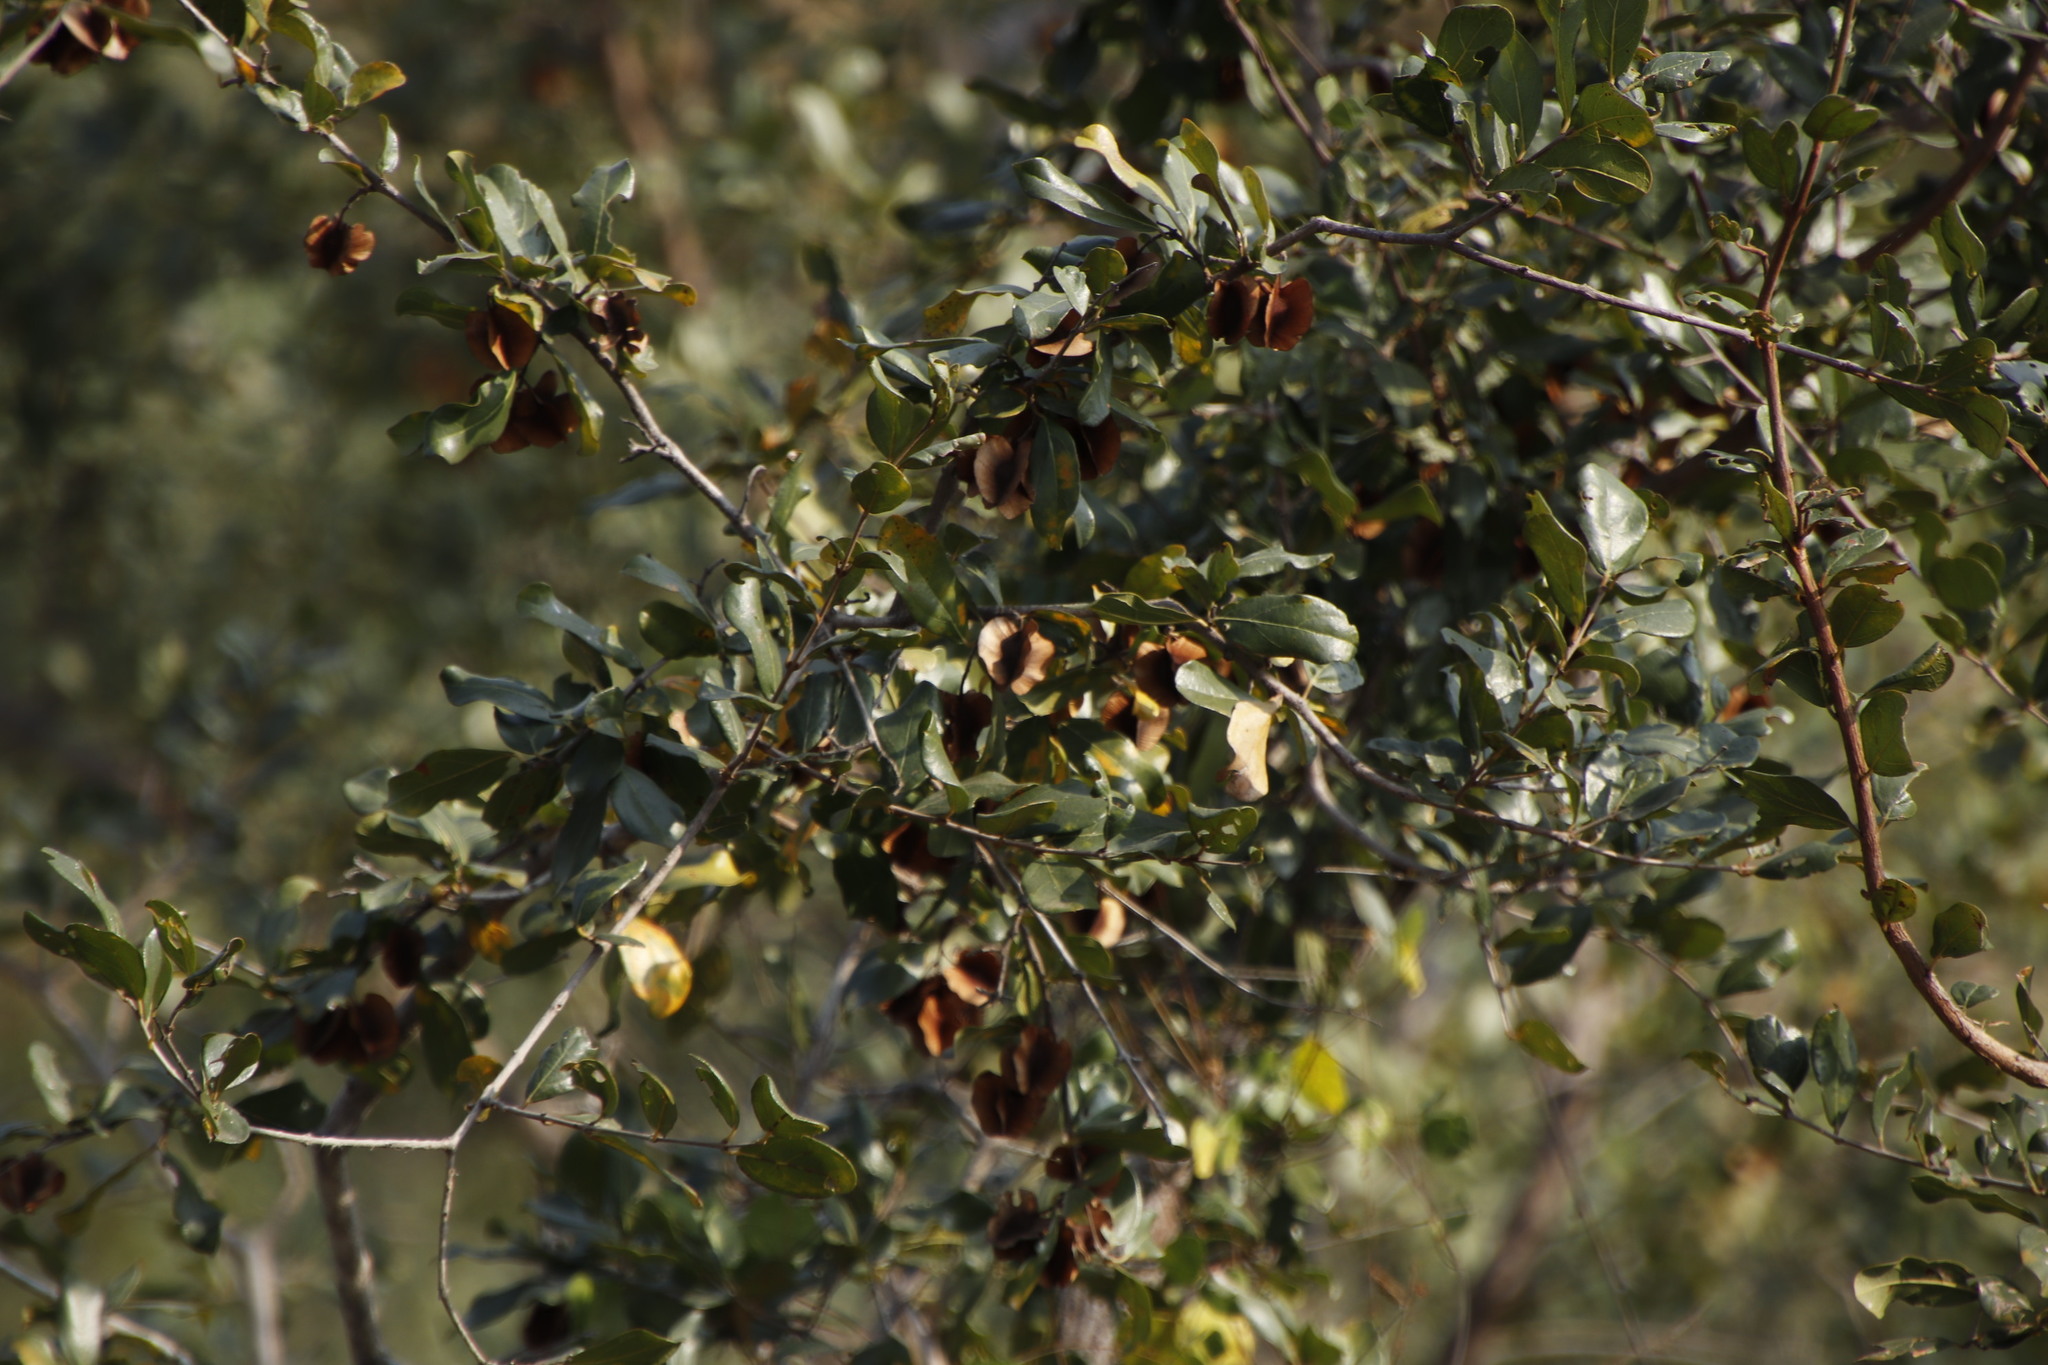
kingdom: Plantae
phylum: Tracheophyta
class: Magnoliopsida
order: Myrtales
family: Combretaceae
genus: Combretum
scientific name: Combretum hereroense
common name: Russet bushwillow
